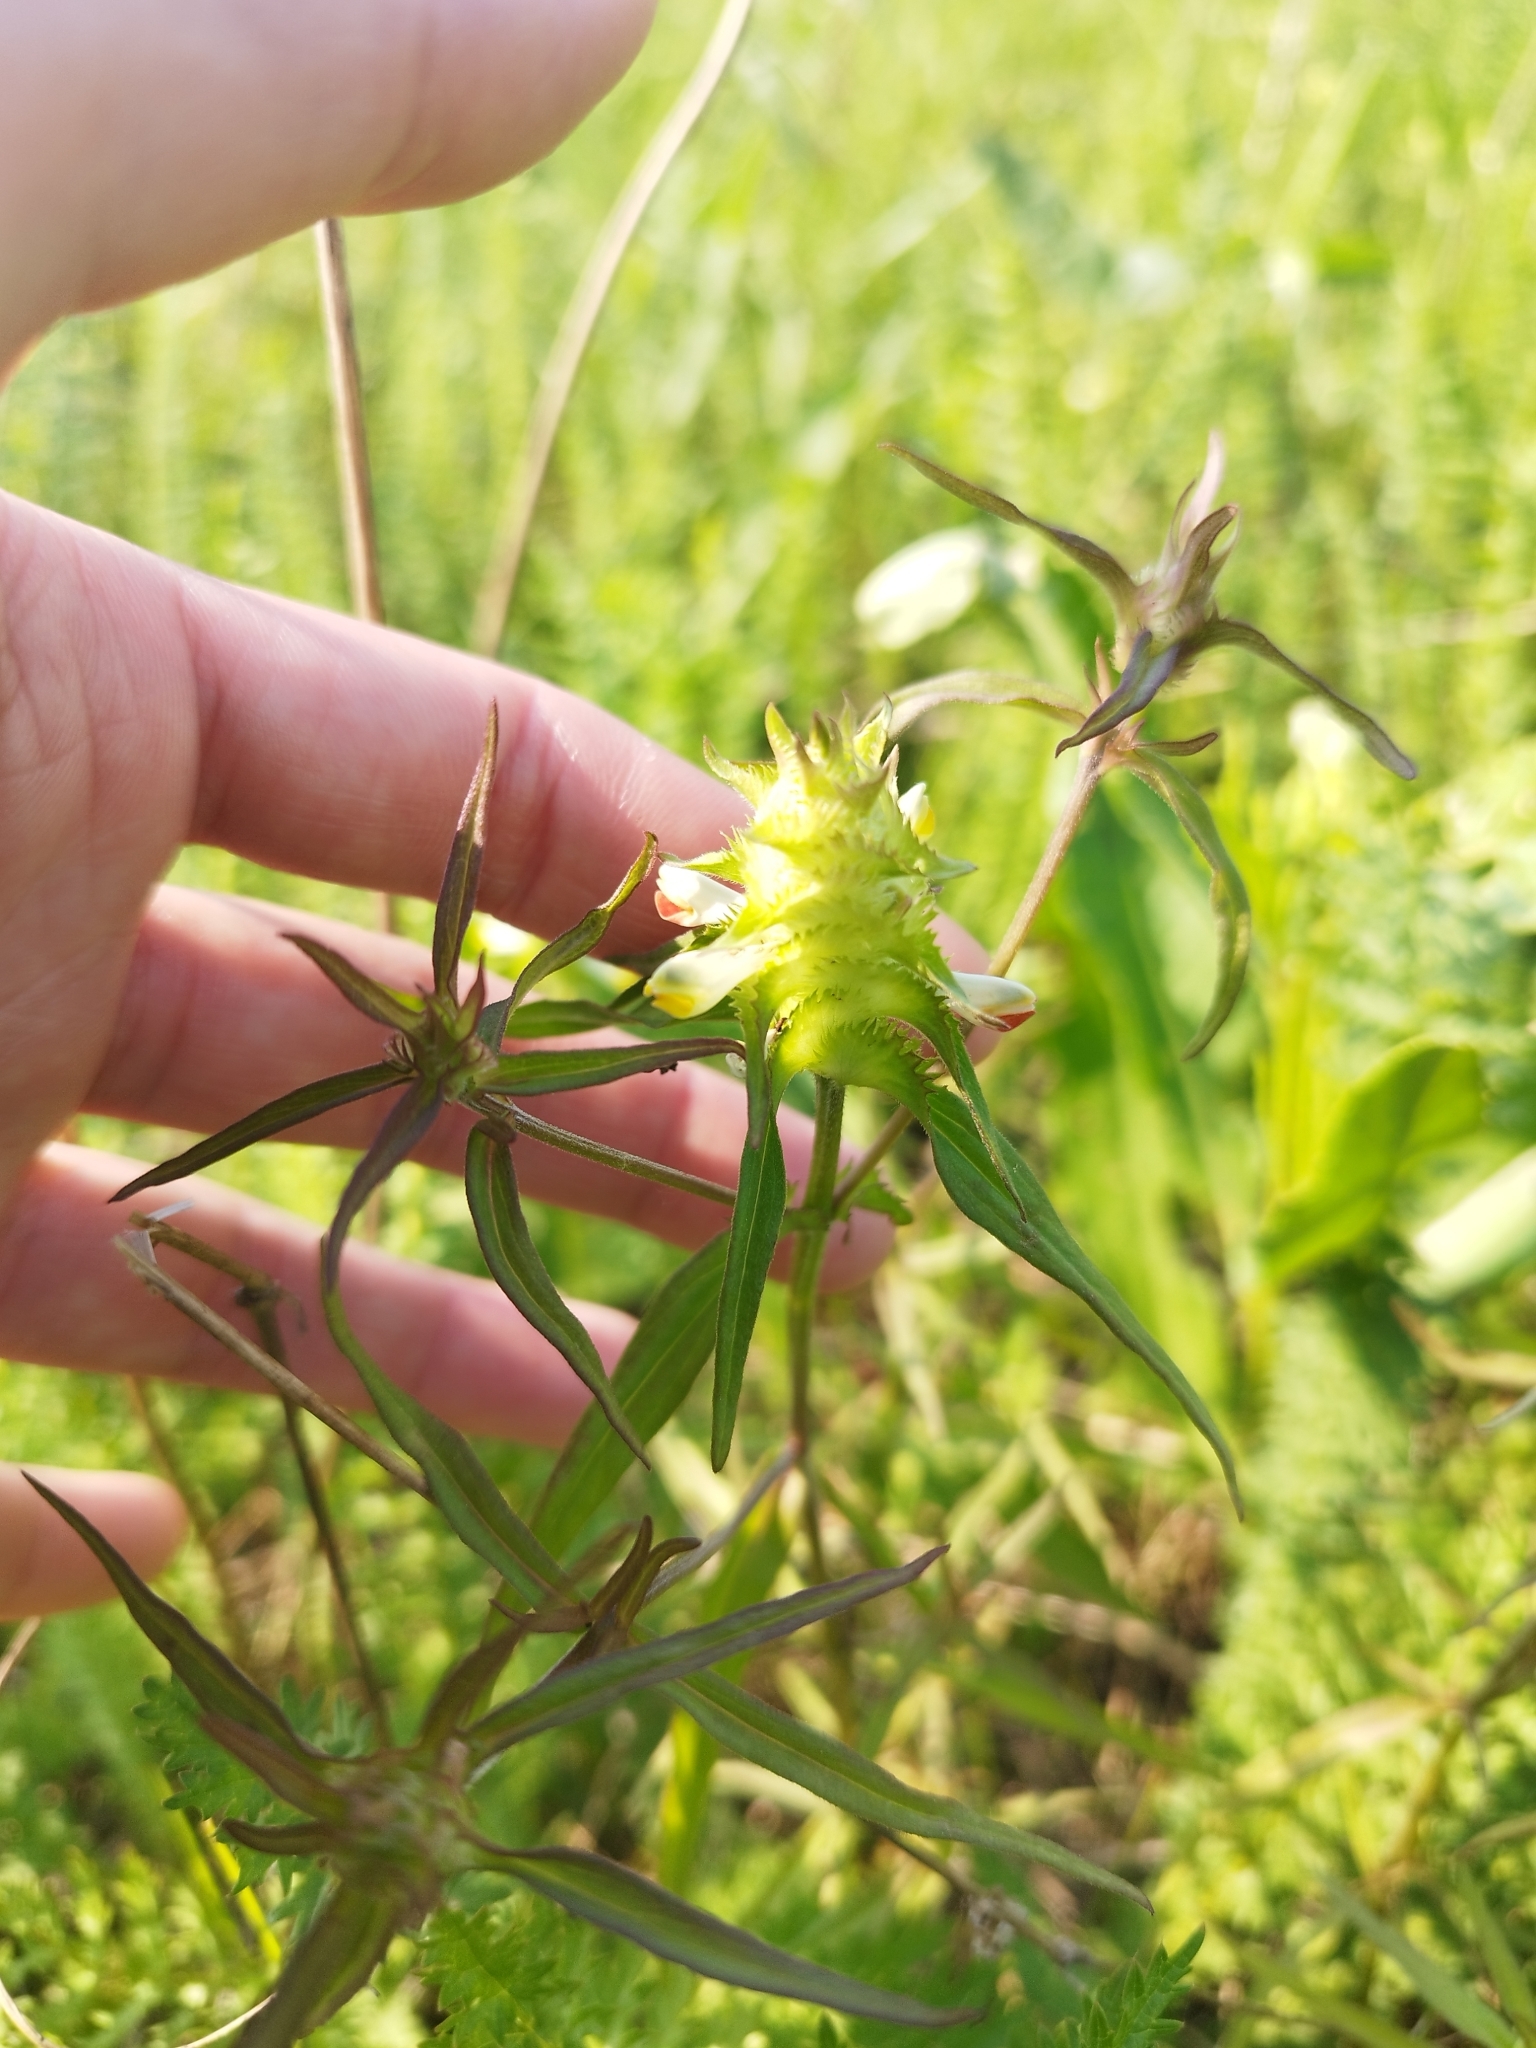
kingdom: Plantae
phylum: Tracheophyta
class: Magnoliopsida
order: Lamiales
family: Orobanchaceae
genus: Melampyrum
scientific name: Melampyrum cristatum
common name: Crested cow-wheat
